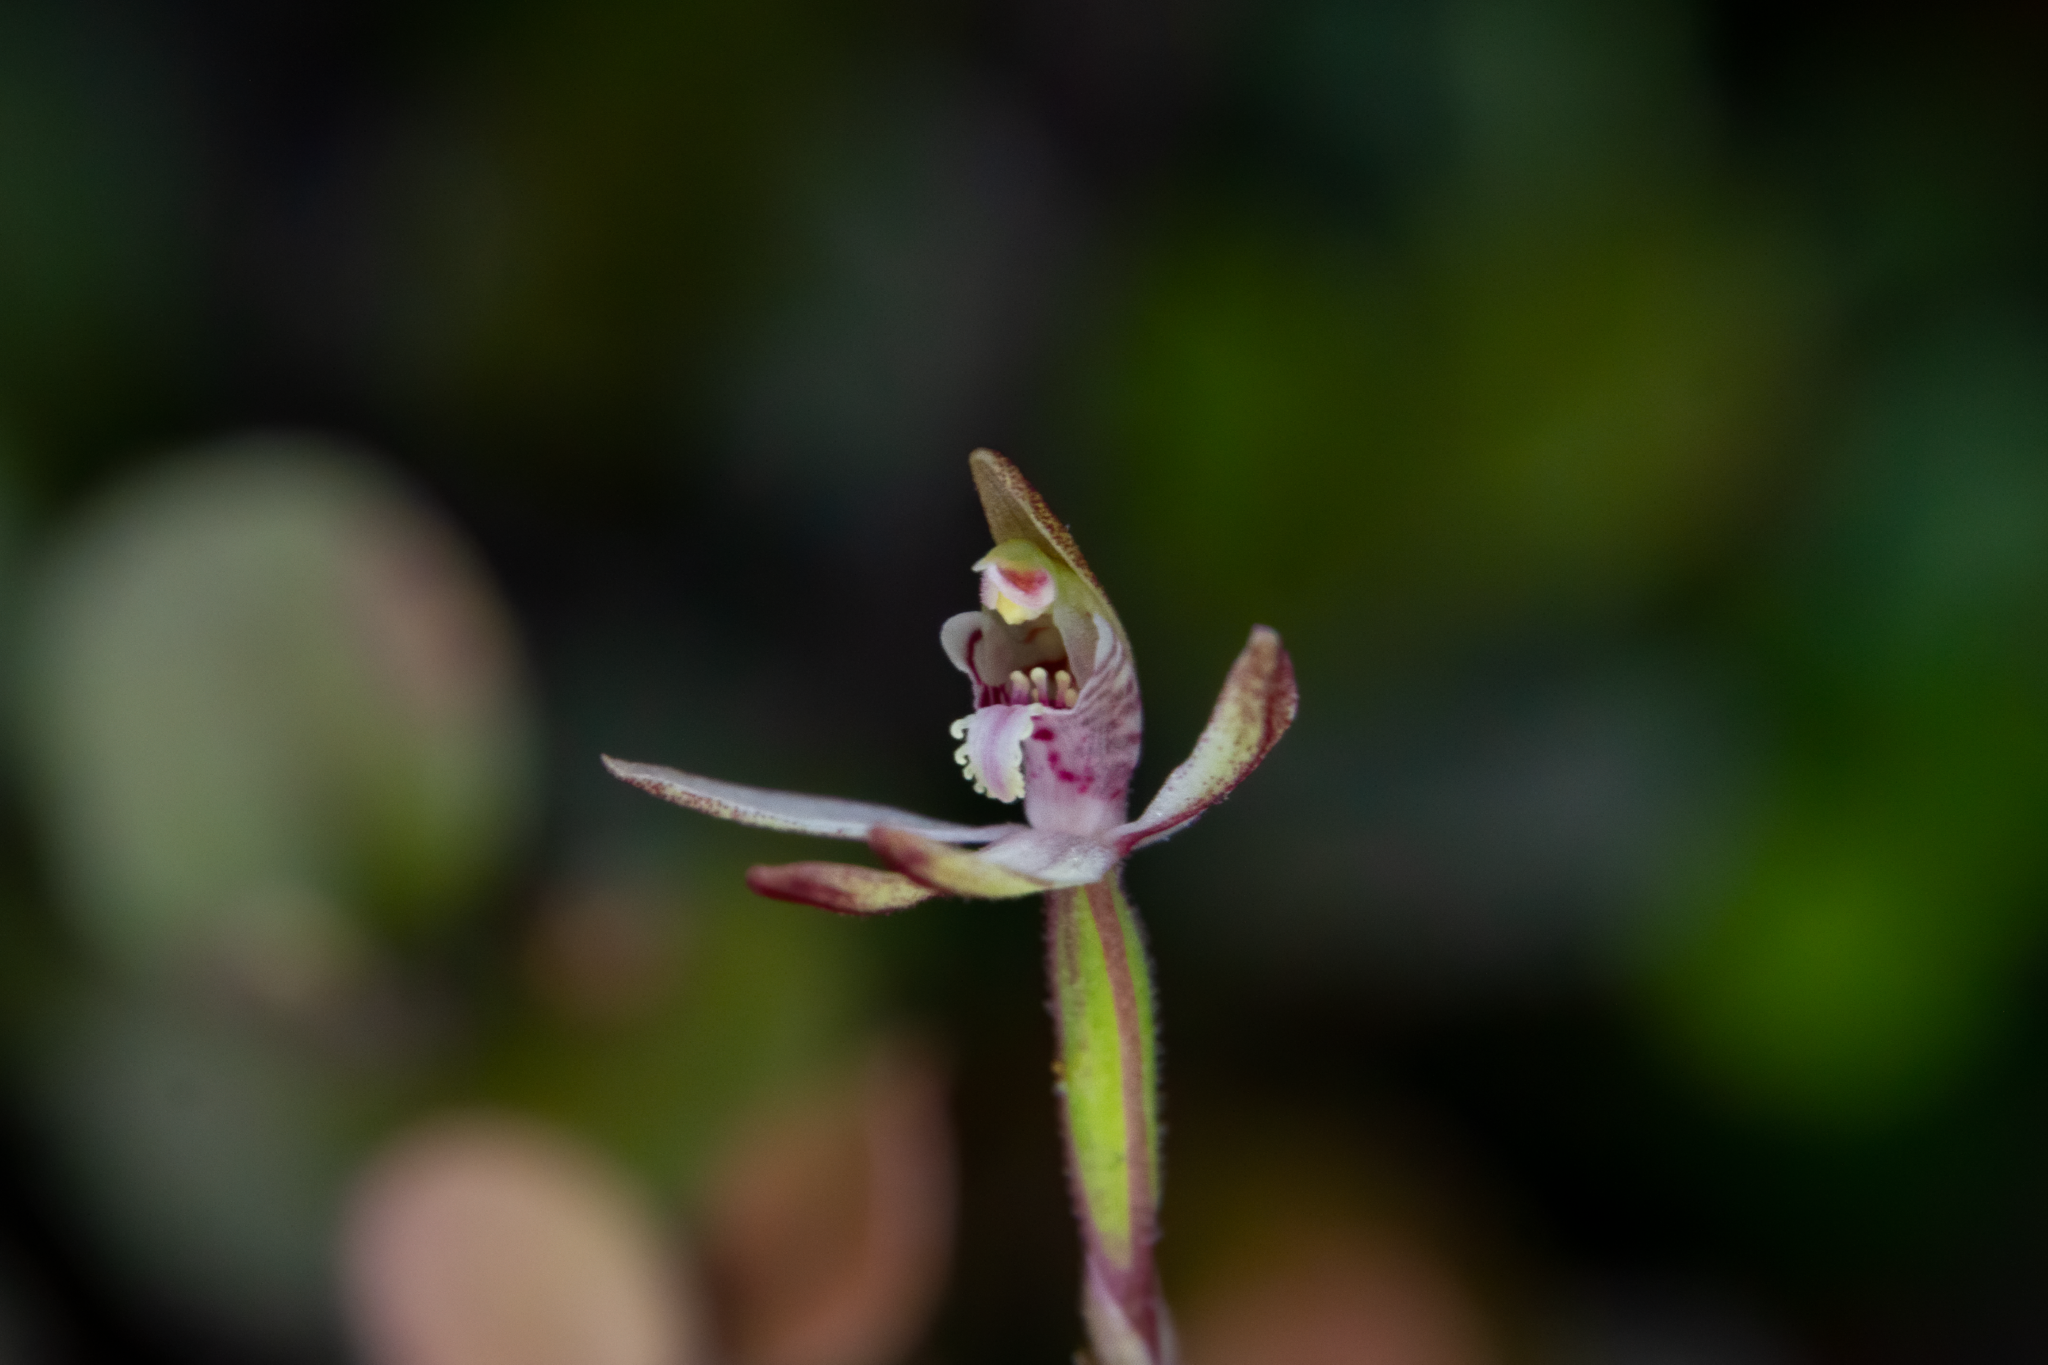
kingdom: Plantae
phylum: Tracheophyta
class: Liliopsida
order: Asparagales
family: Orchidaceae
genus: Caladenia
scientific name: Caladenia chlorostyla
